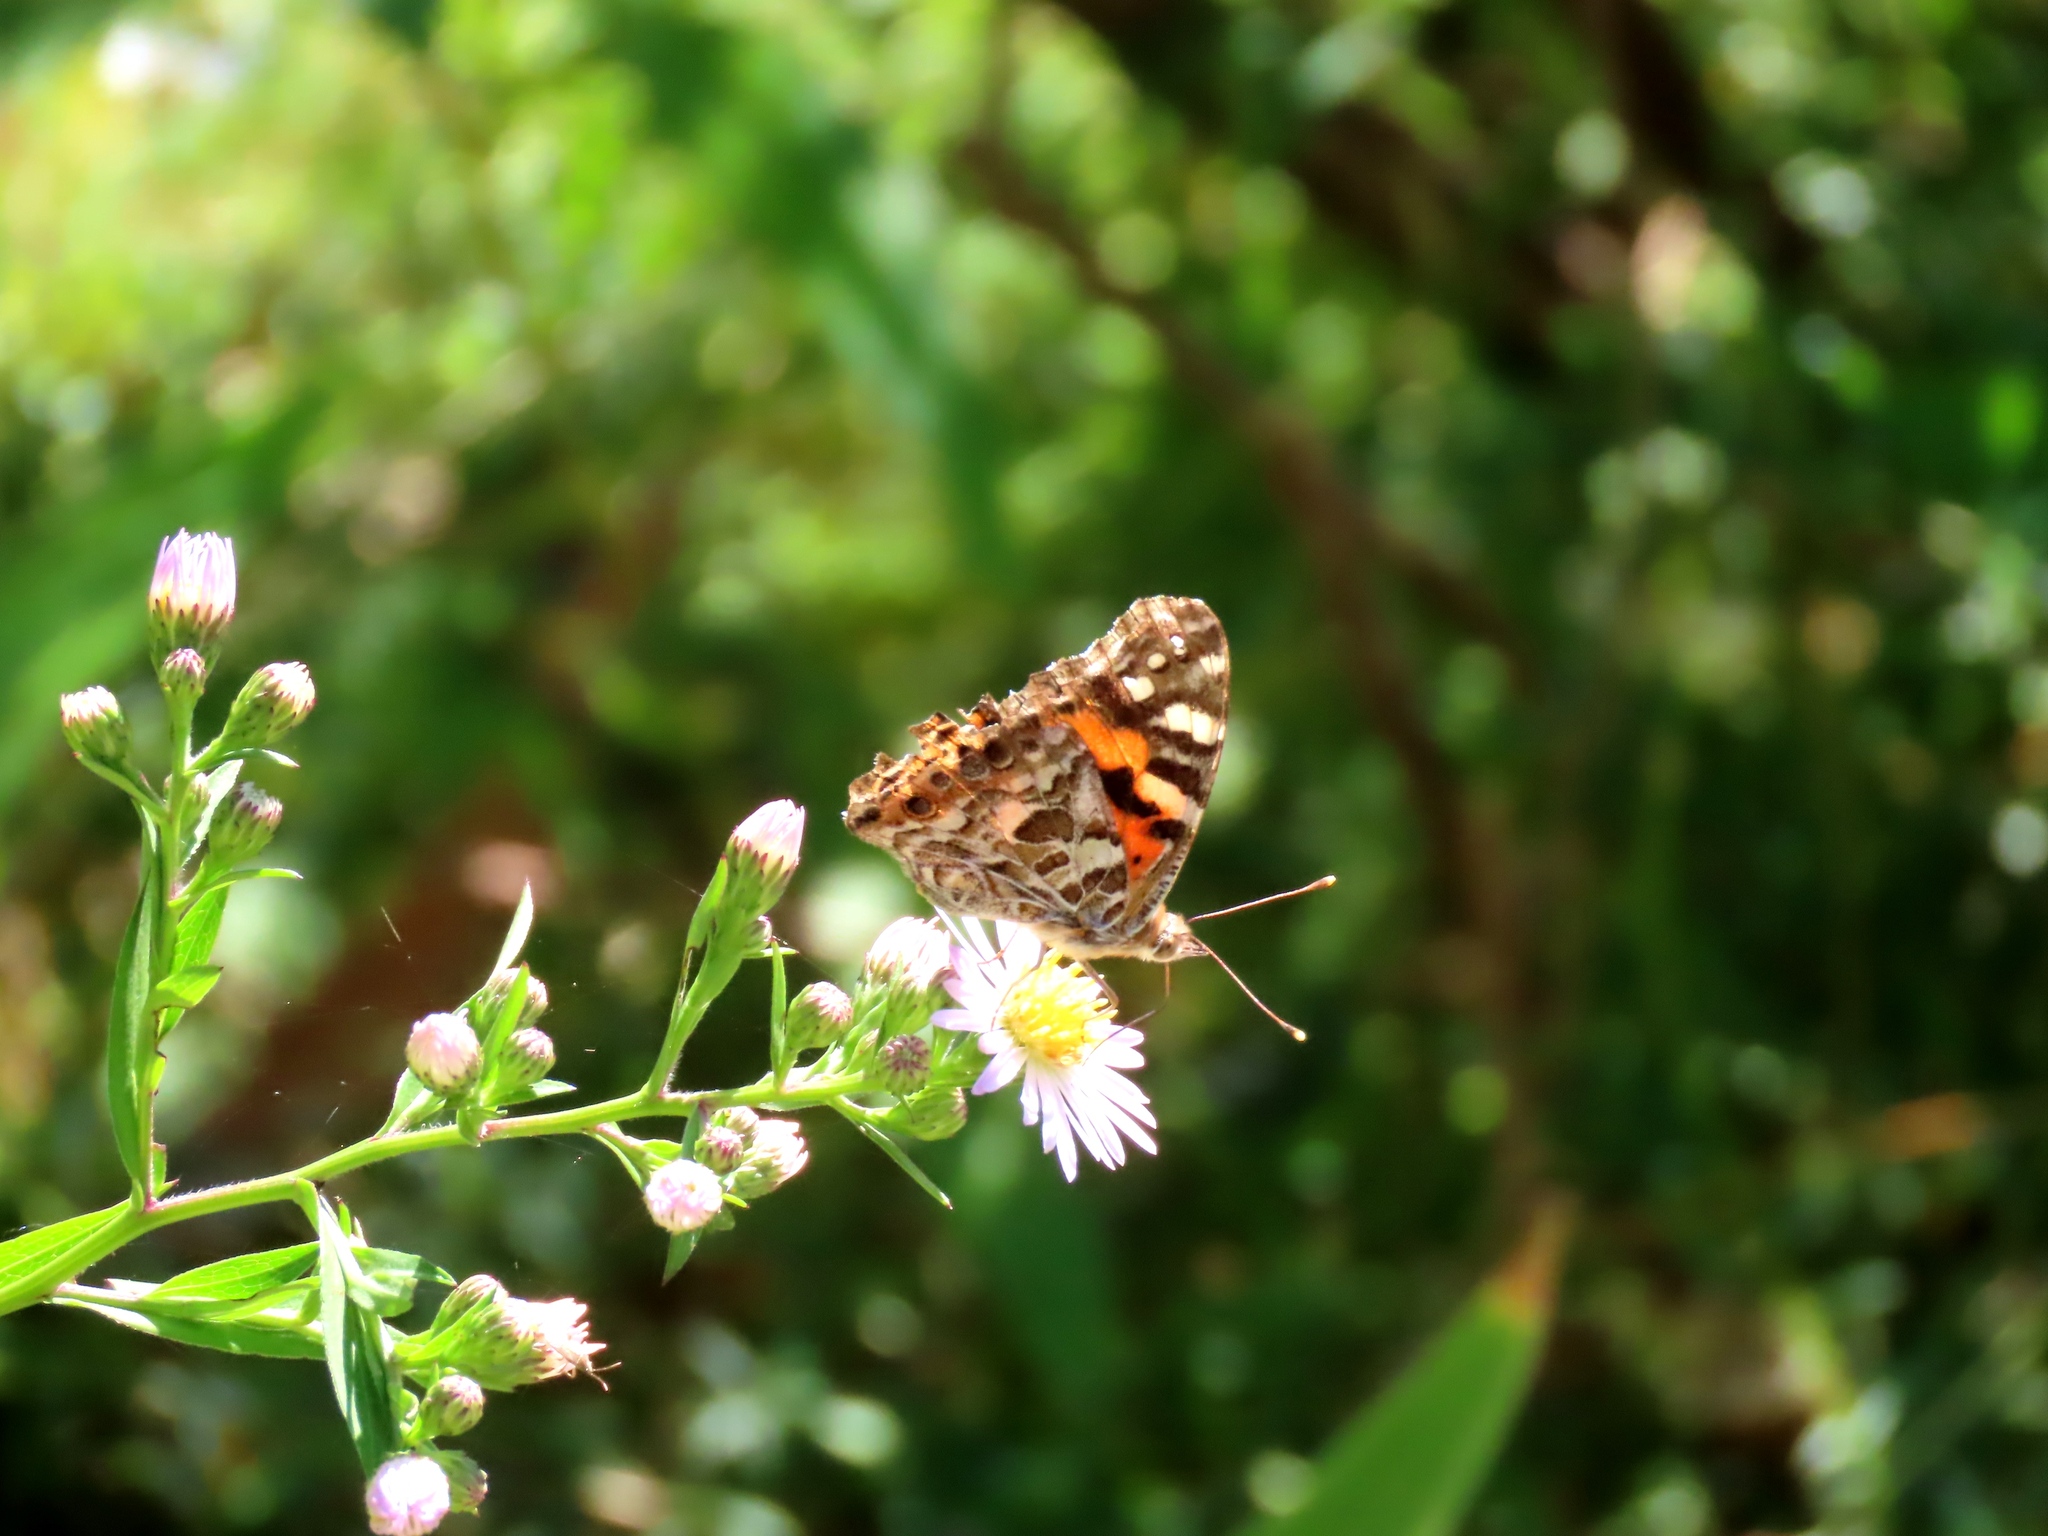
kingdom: Animalia
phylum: Arthropoda
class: Insecta
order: Lepidoptera
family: Nymphalidae
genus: Vanessa
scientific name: Vanessa kershawi
